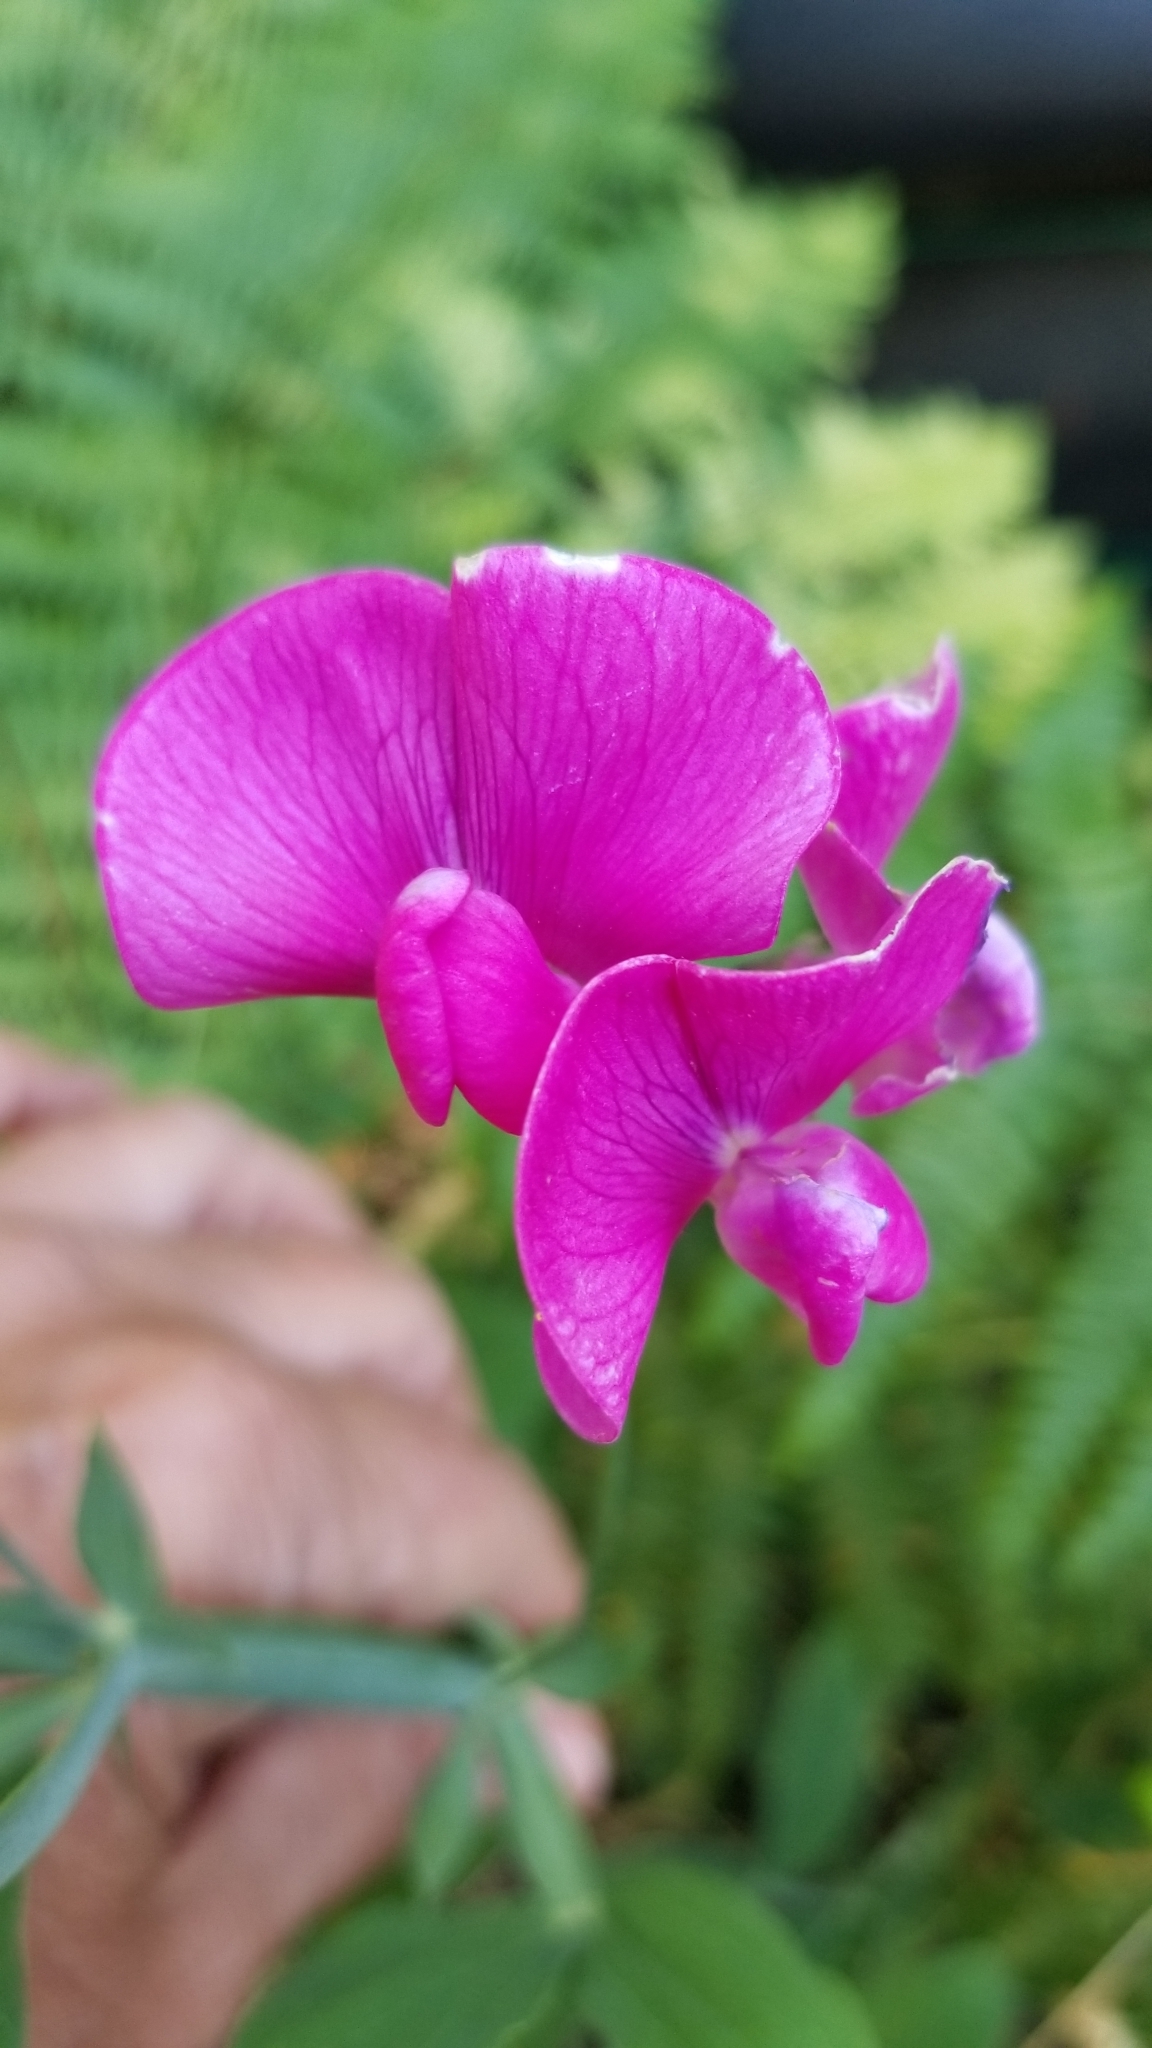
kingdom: Plantae
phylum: Tracheophyta
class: Magnoliopsida
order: Fabales
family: Fabaceae
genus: Lathyrus
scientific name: Lathyrus latifolius
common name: Perennial pea
